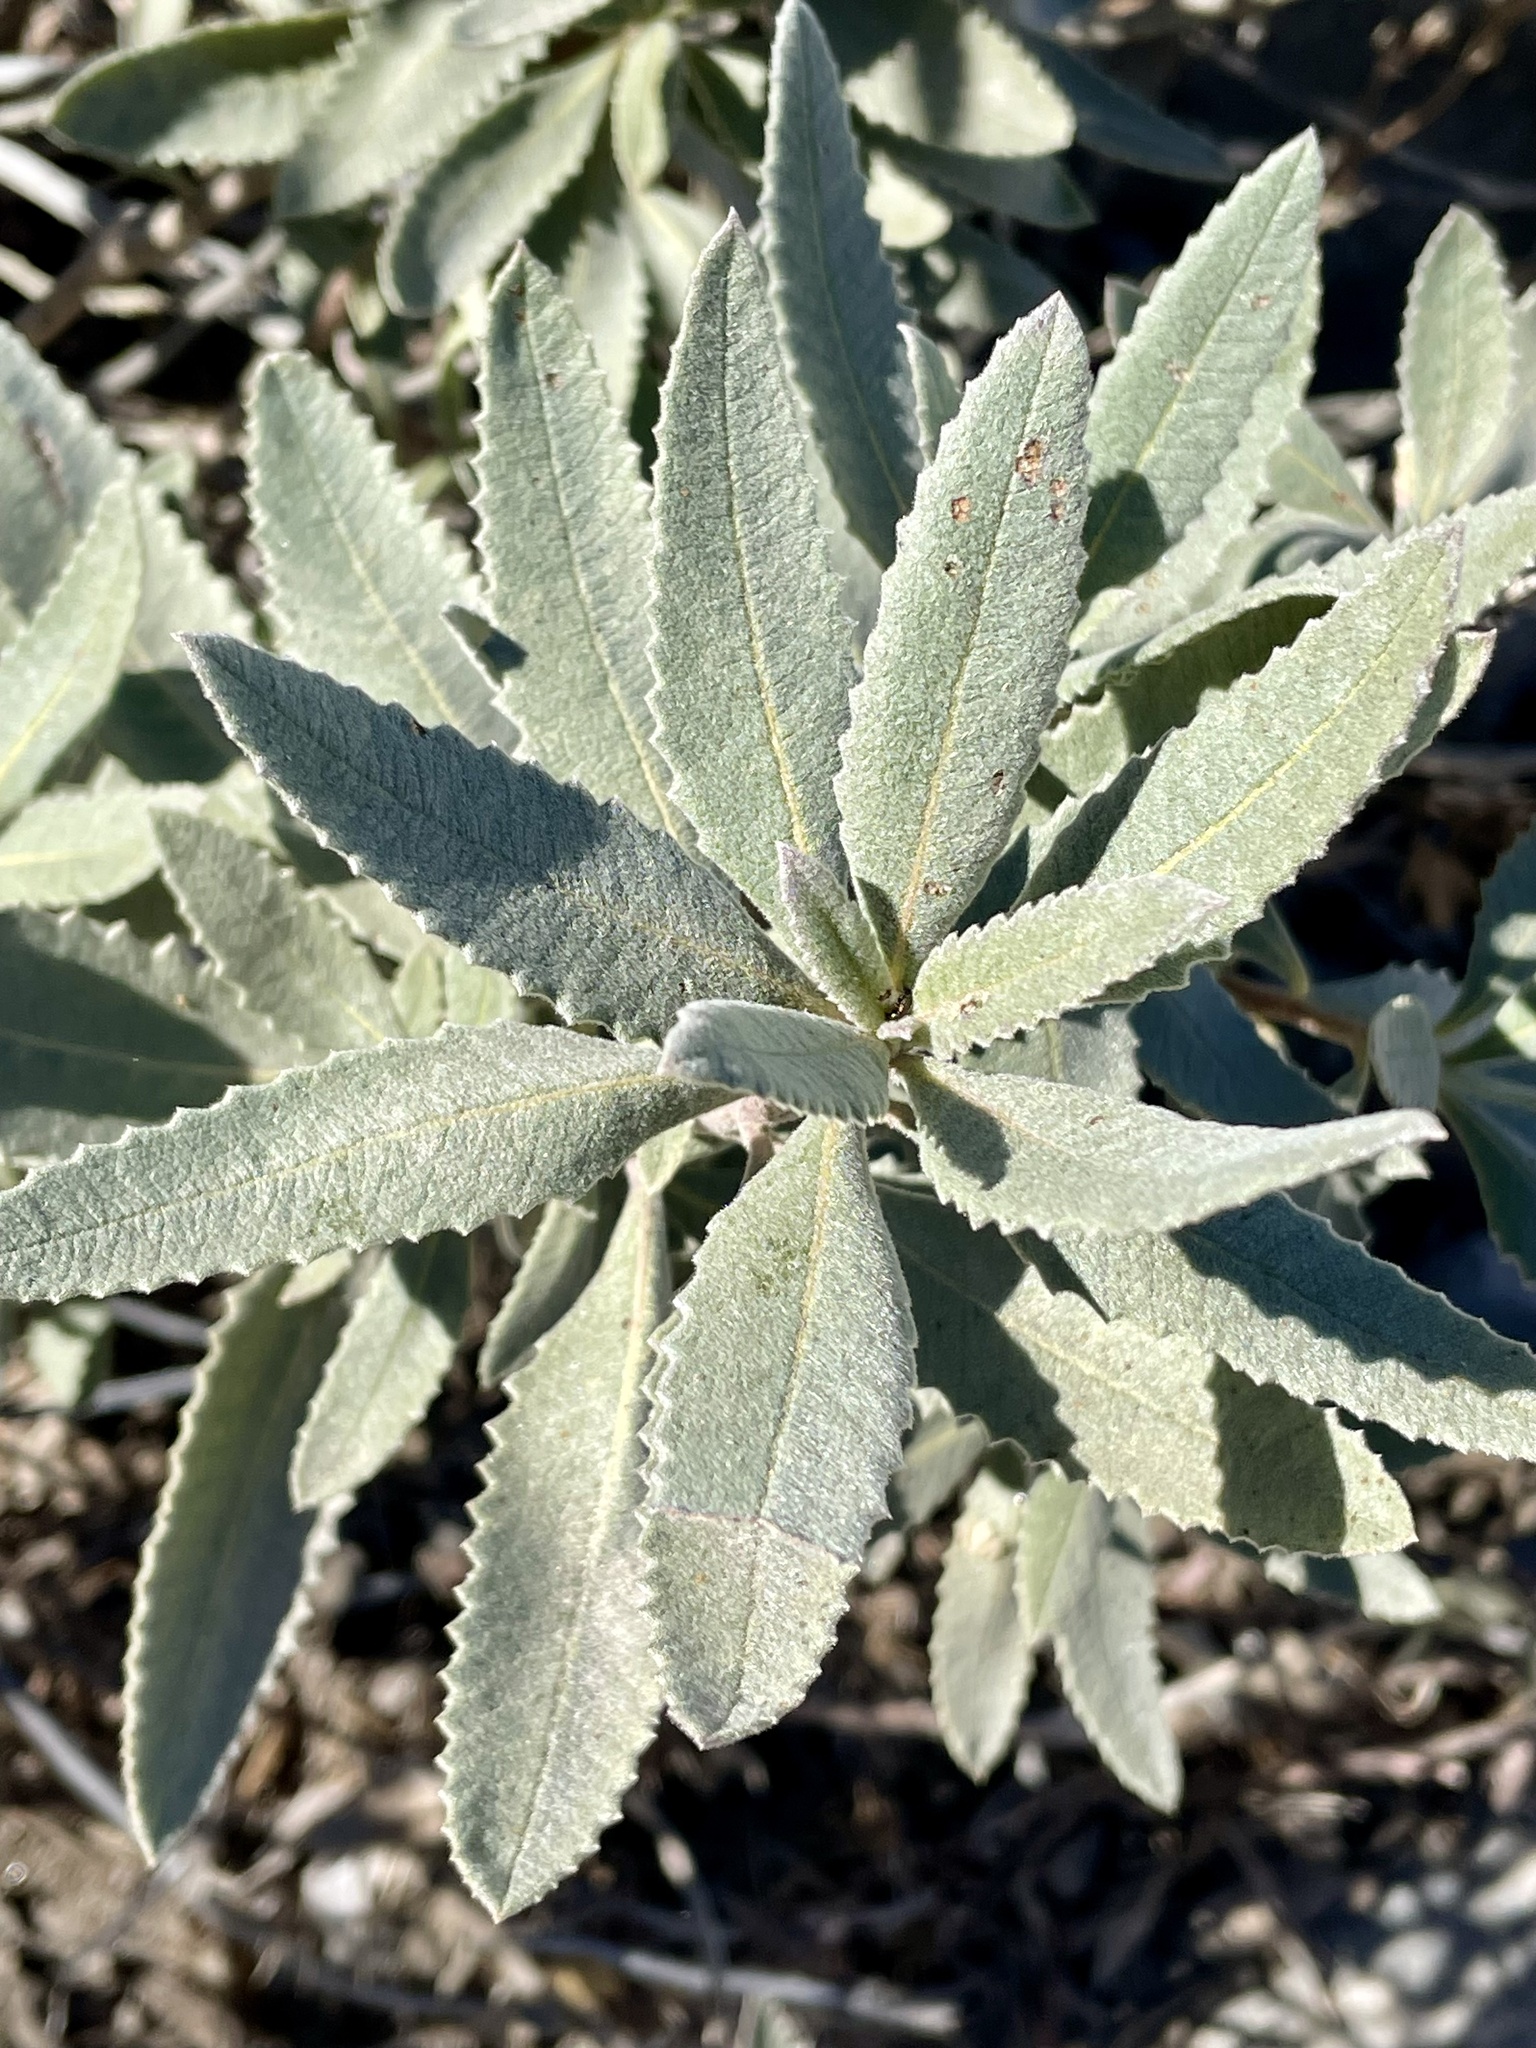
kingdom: Plantae
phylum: Tracheophyta
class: Magnoliopsida
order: Boraginales
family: Namaceae
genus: Eriodictyon
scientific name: Eriodictyon crassifolium
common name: Thick-leaf yerba-santa
